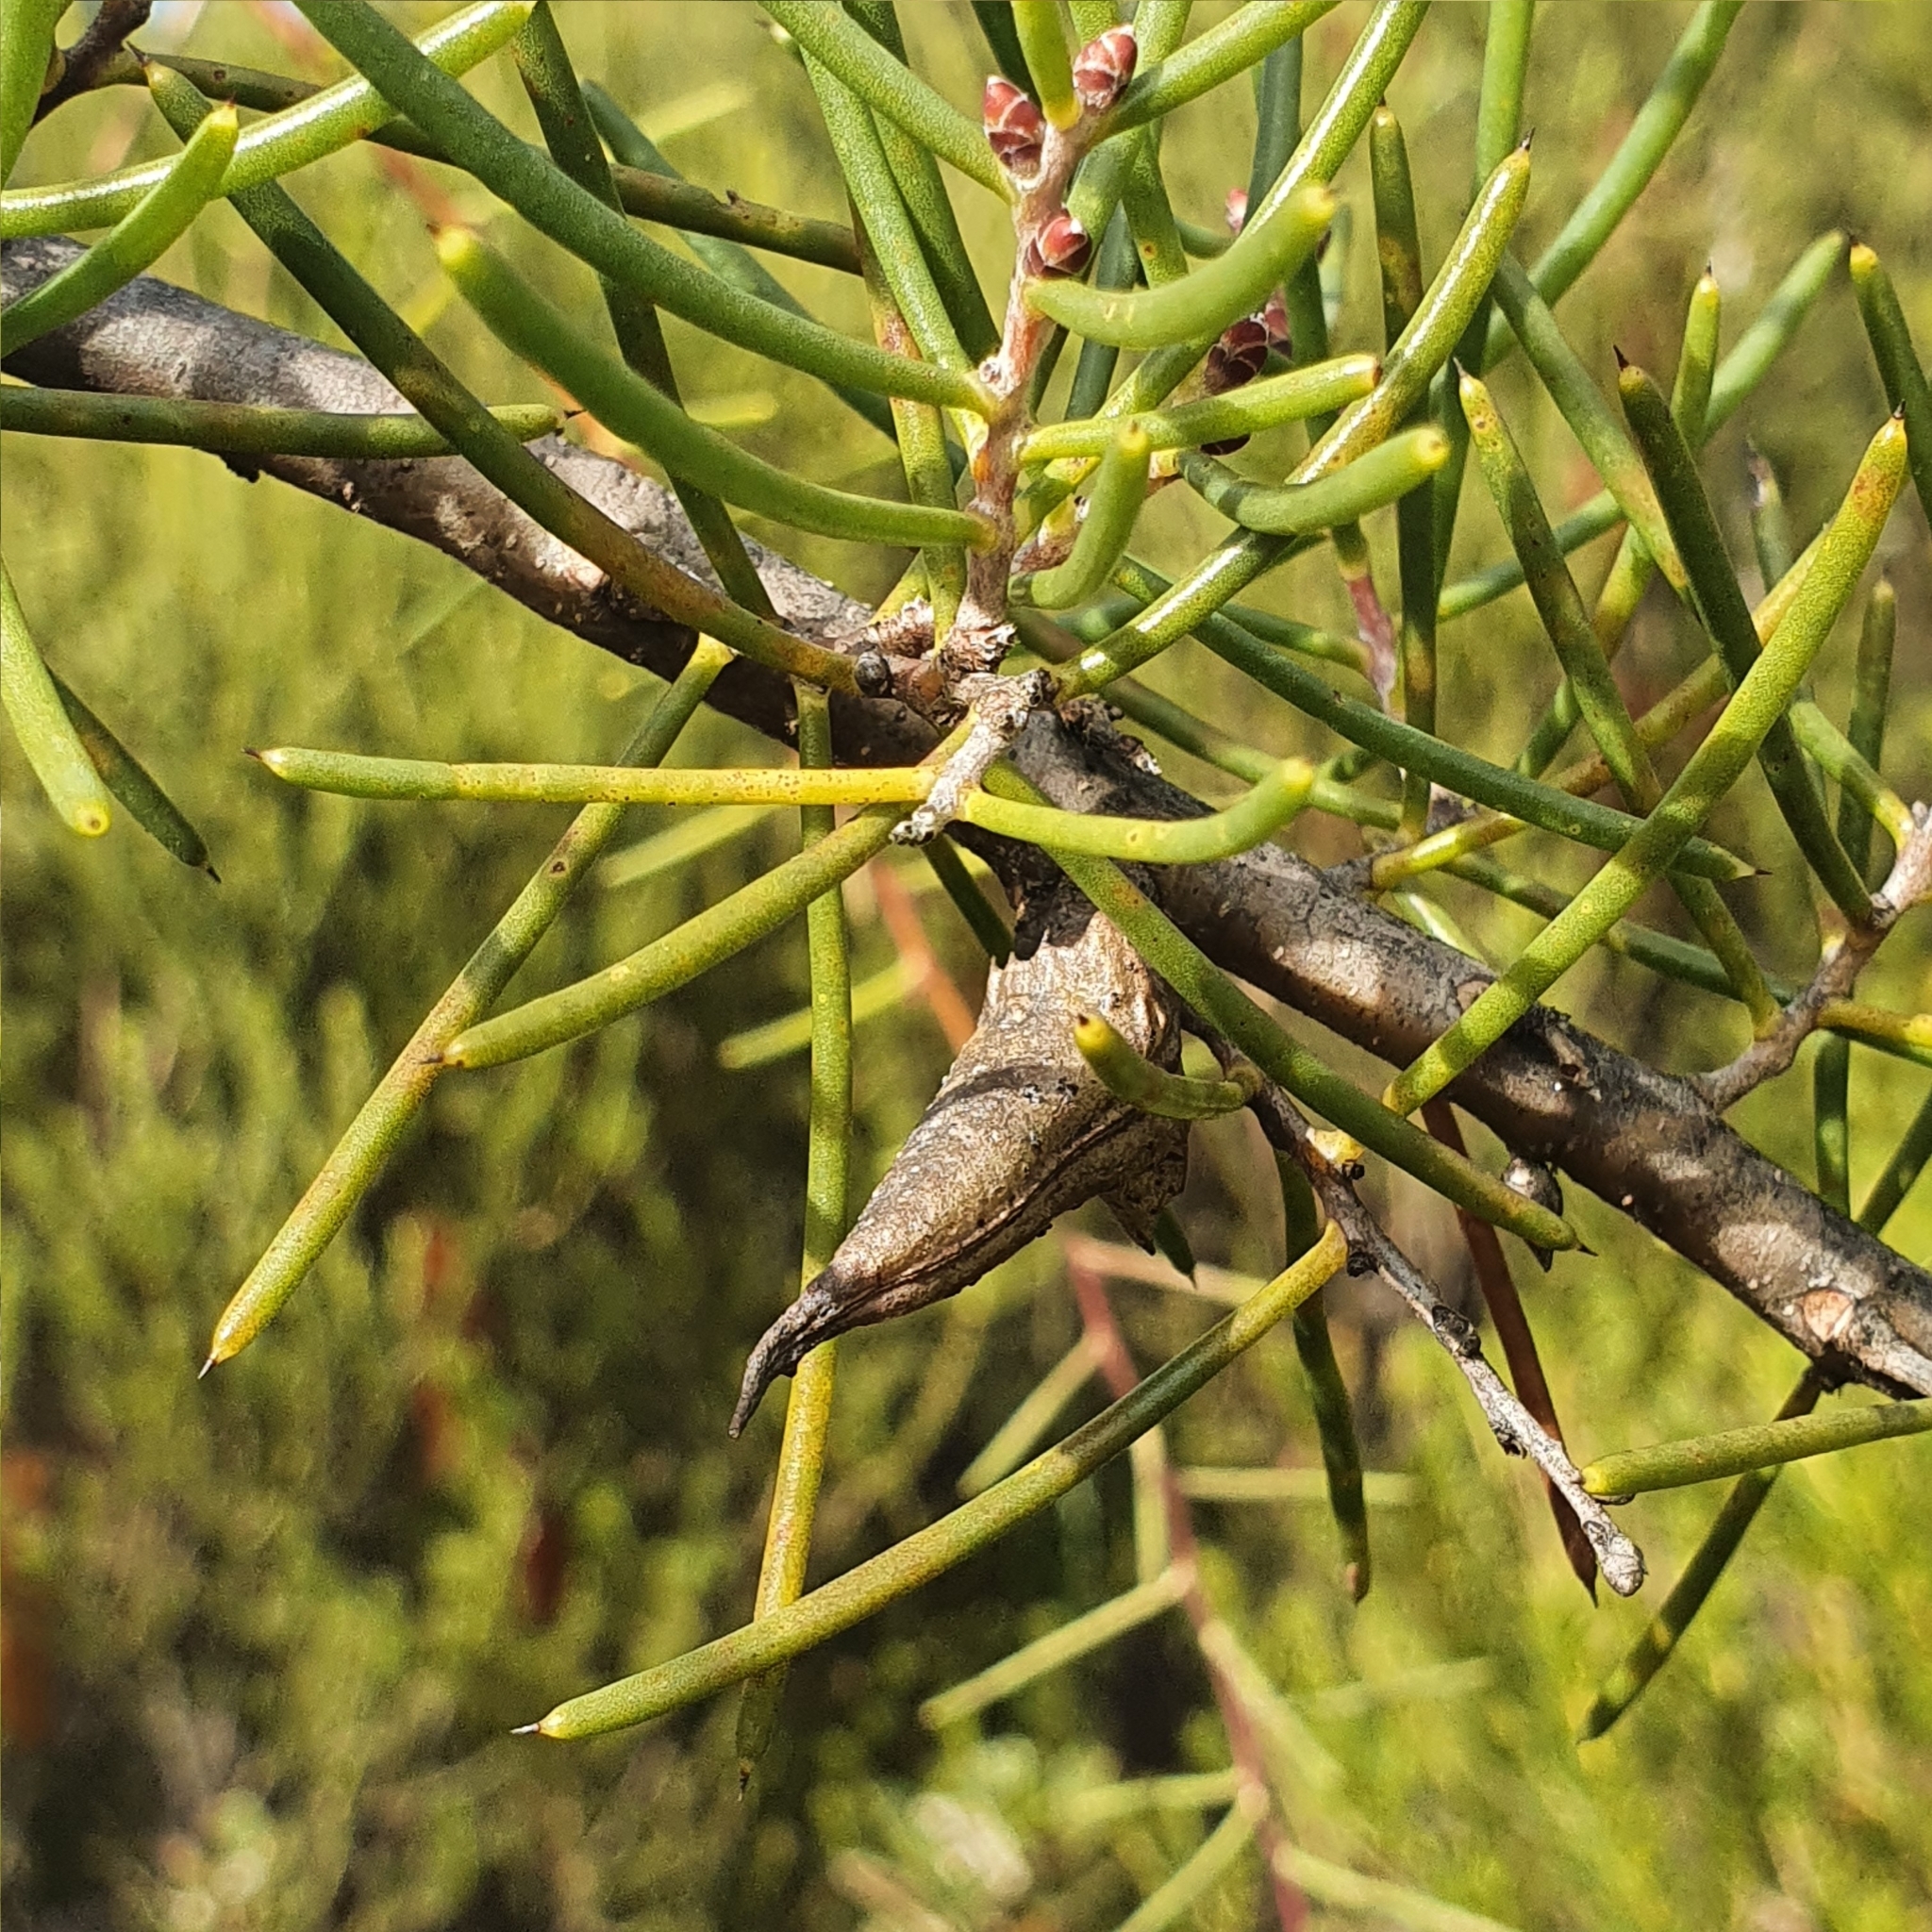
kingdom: Plantae
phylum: Tracheophyta
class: Magnoliopsida
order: Proteales
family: Proteaceae
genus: Hakea
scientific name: Hakea teretifolia
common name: Dagger hakea
